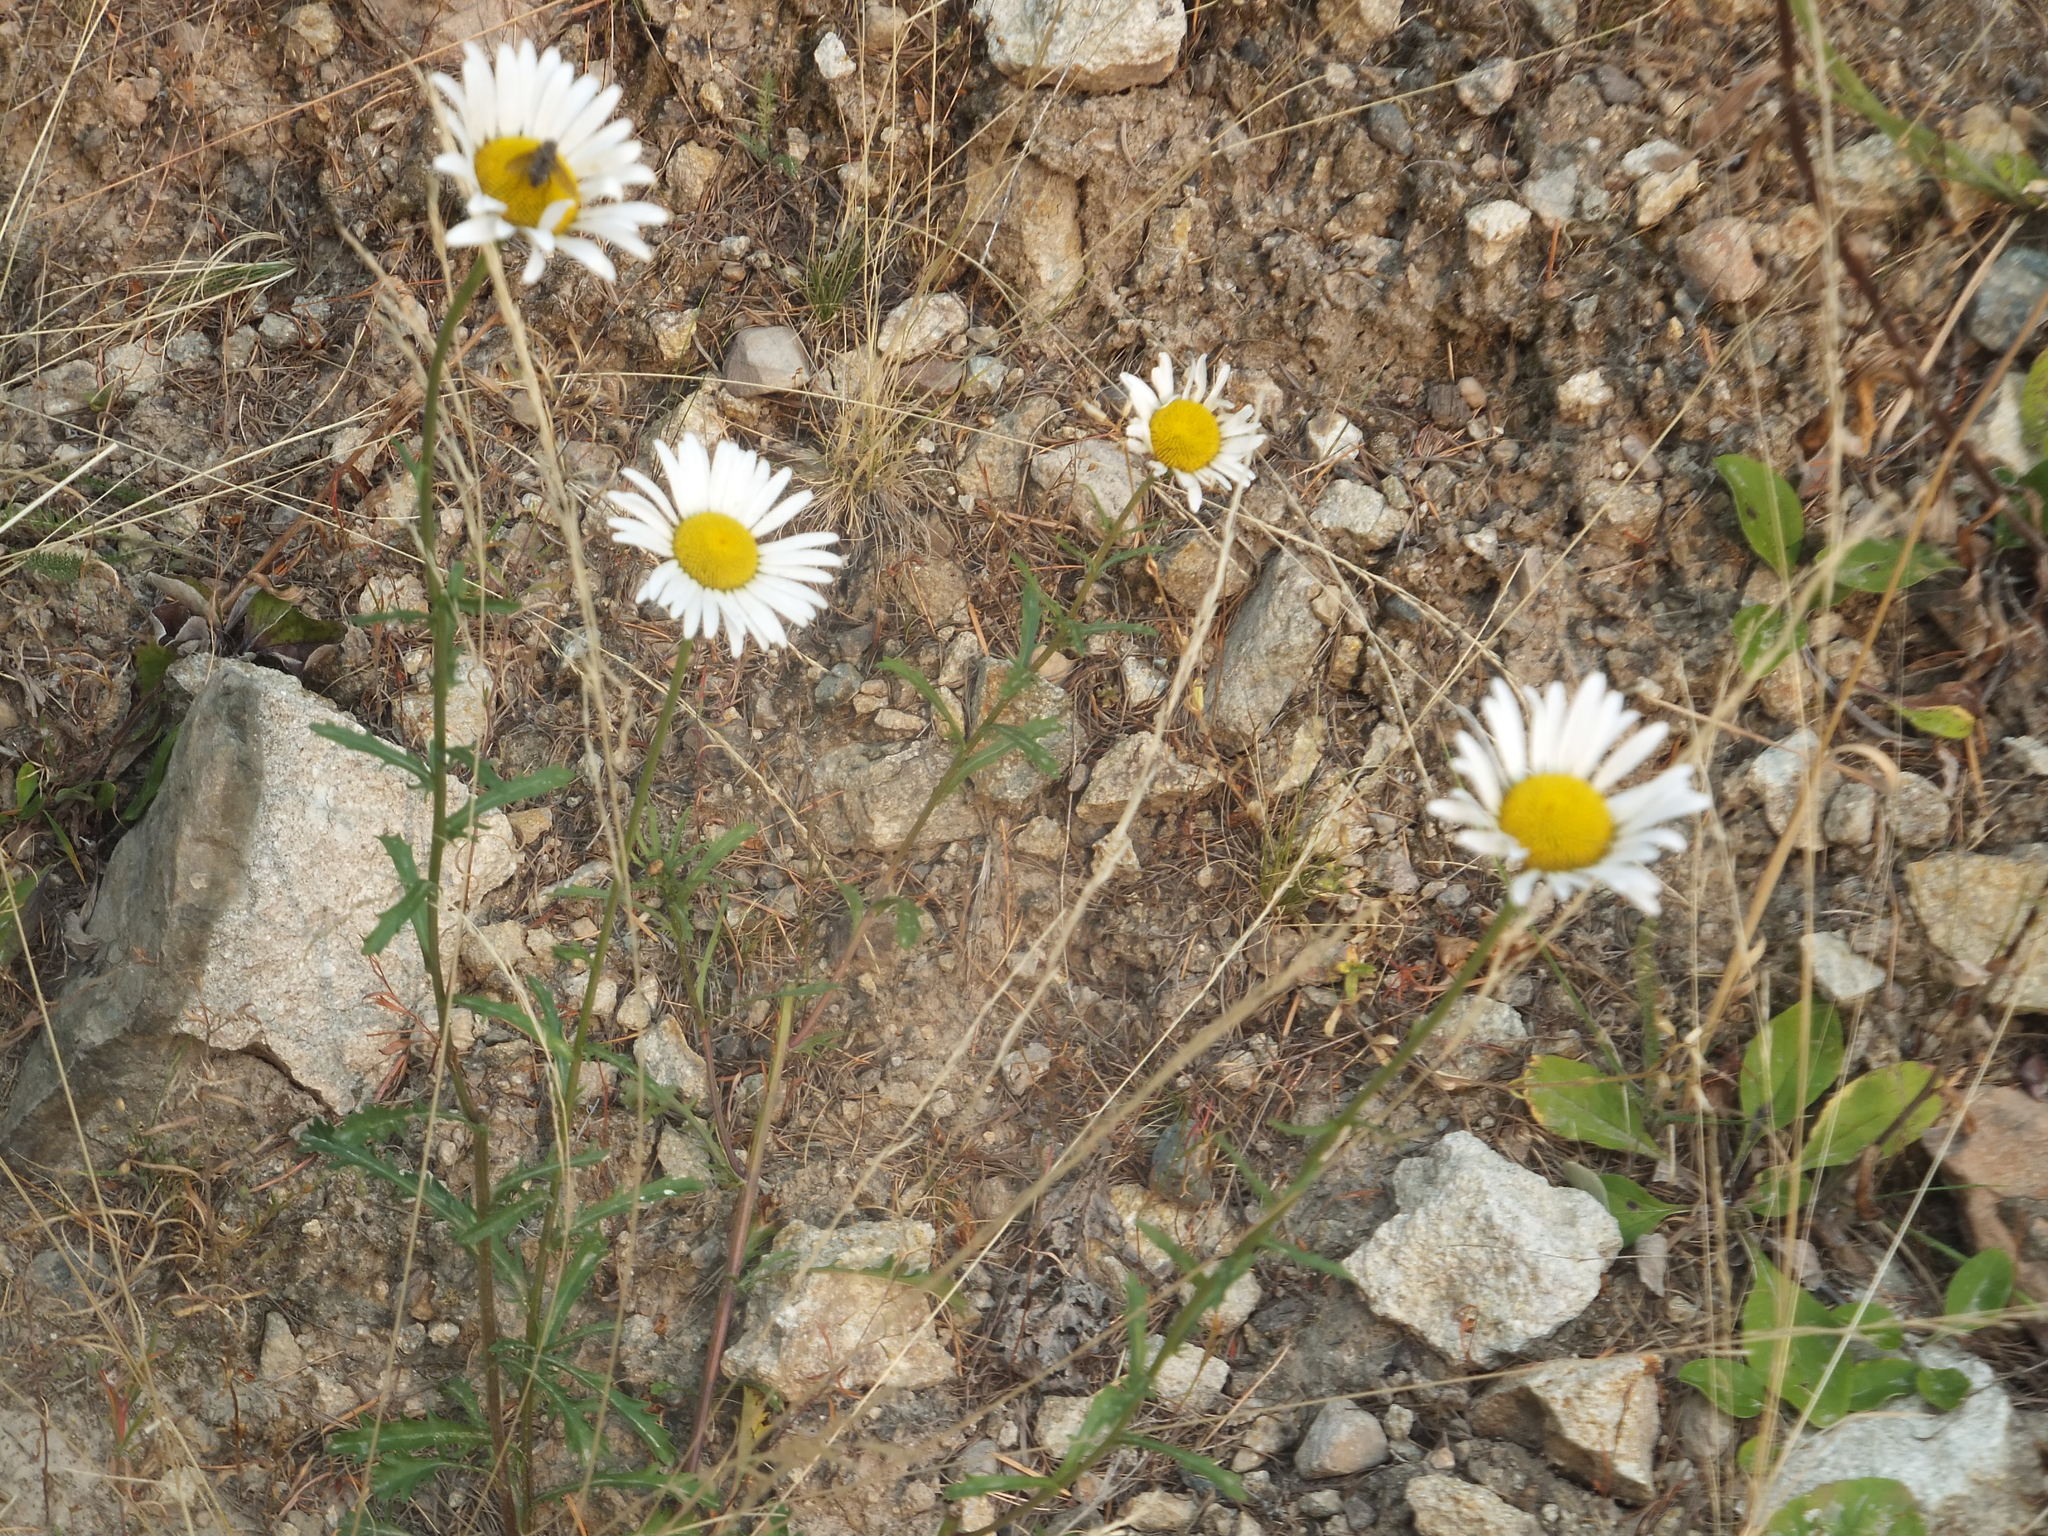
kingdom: Plantae
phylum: Tracheophyta
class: Magnoliopsida
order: Asterales
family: Asteraceae
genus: Leucanthemum
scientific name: Leucanthemum vulgare
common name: Oxeye daisy
